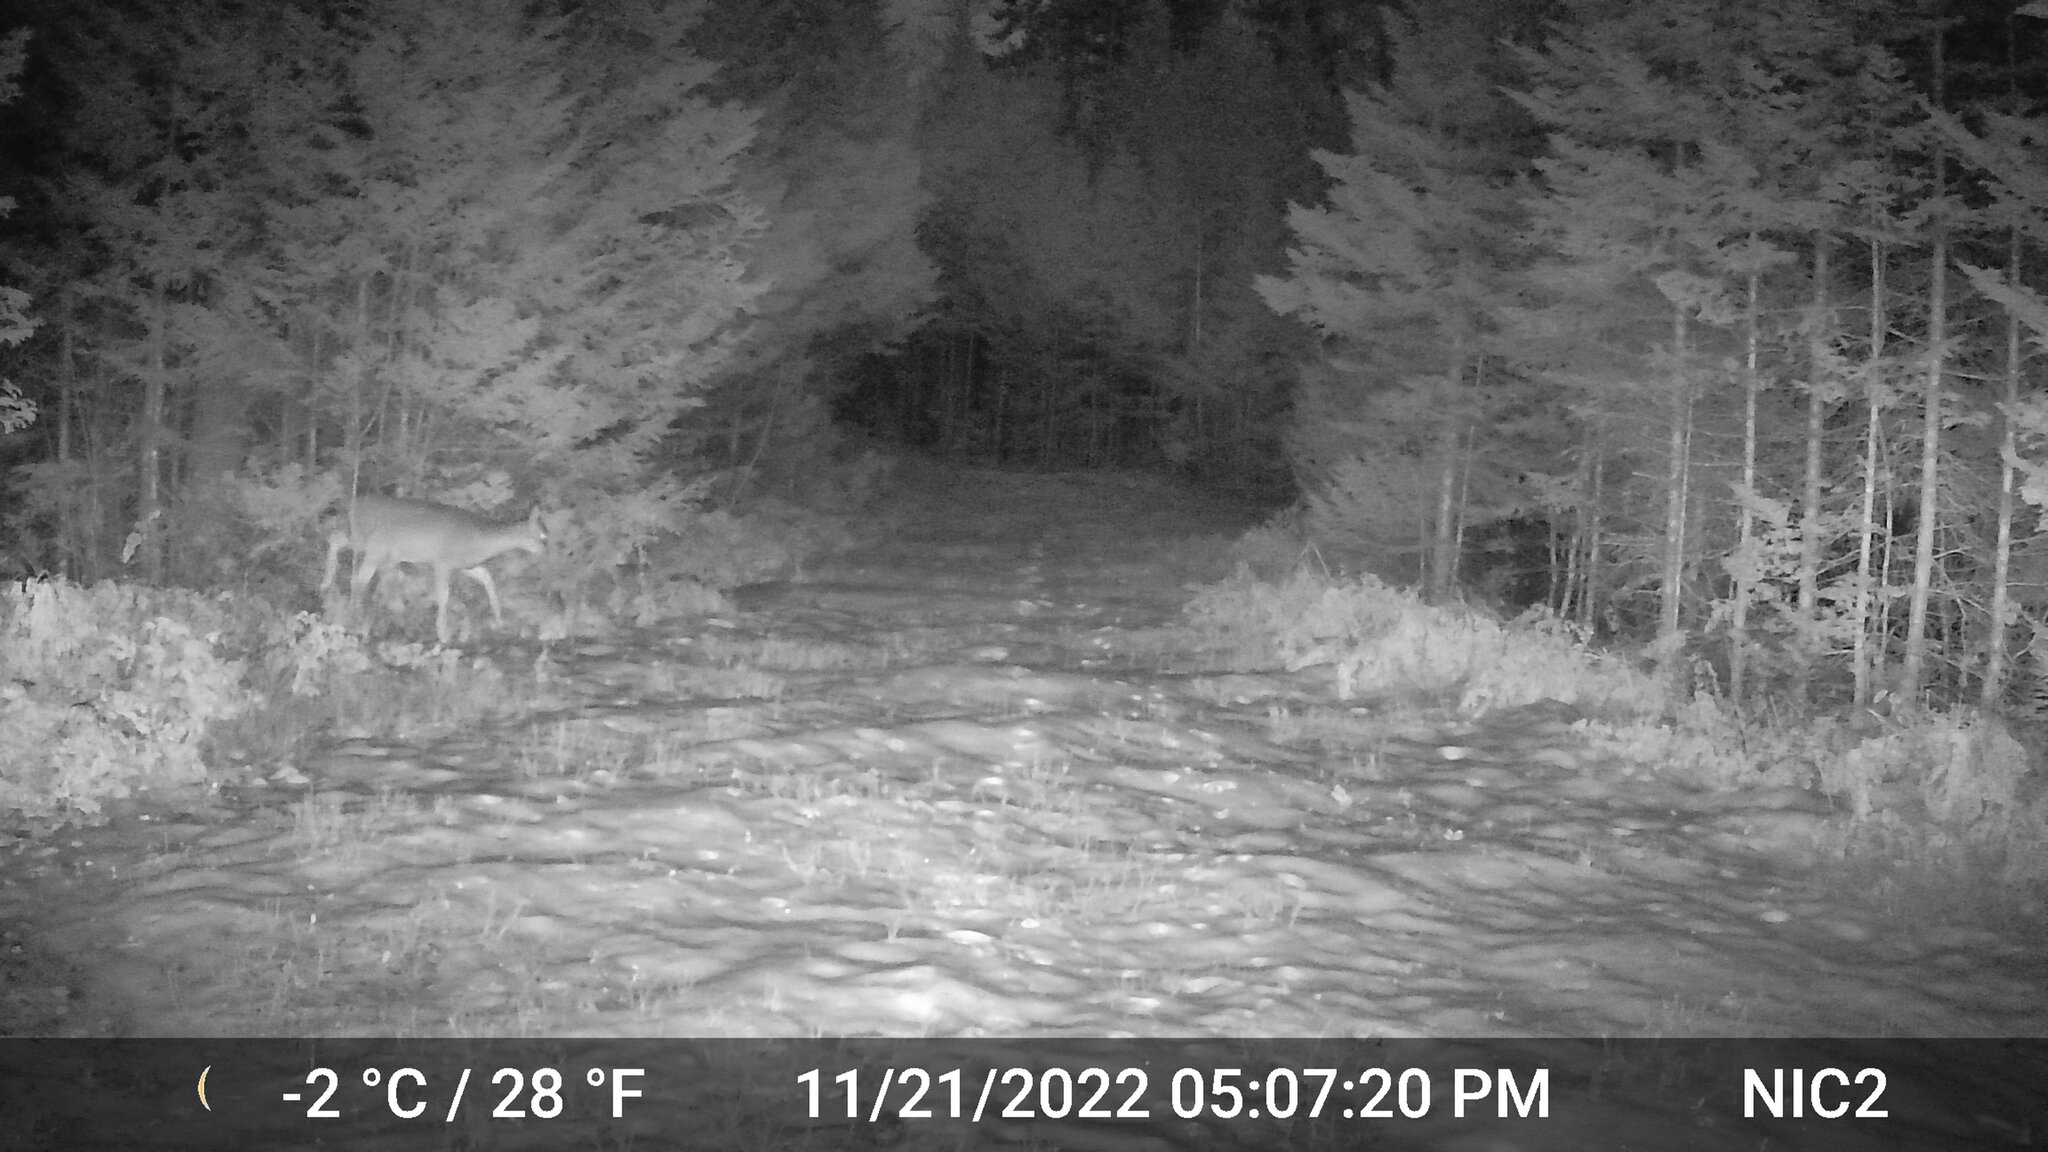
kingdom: Animalia
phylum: Chordata
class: Mammalia
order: Artiodactyla
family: Cervidae
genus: Odocoileus
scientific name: Odocoileus virginianus
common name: White-tailed deer
